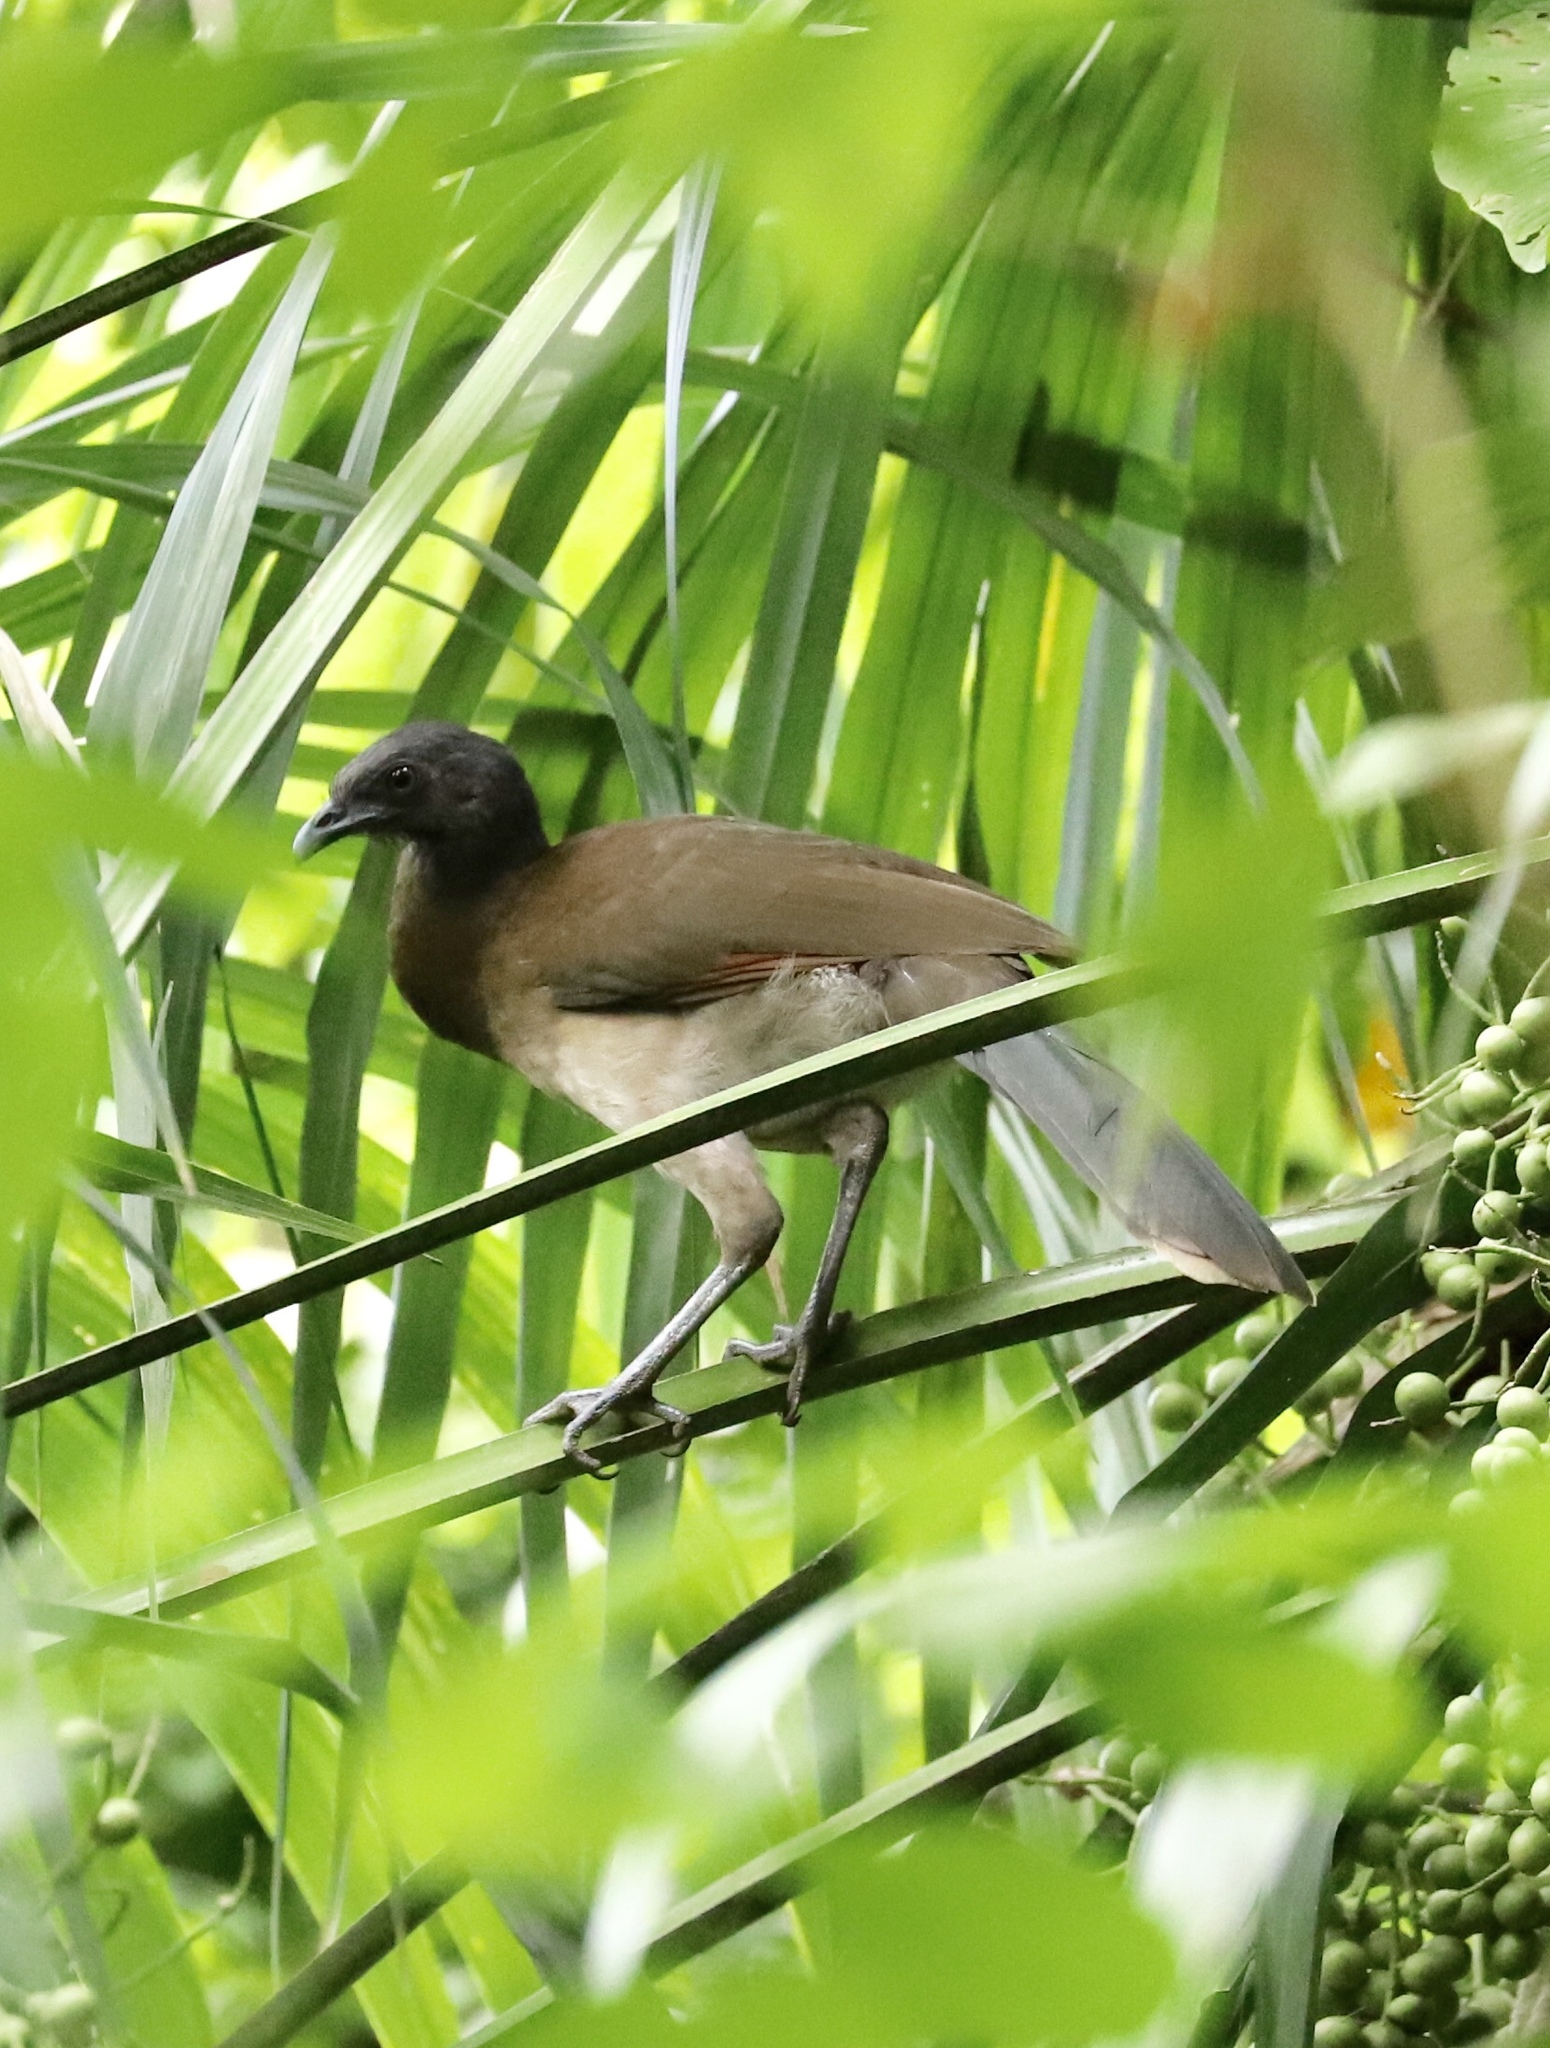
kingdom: Animalia
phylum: Chordata
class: Aves
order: Galliformes
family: Cracidae
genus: Ortalis
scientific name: Ortalis cinereiceps
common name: Grey-headed chachalaca
